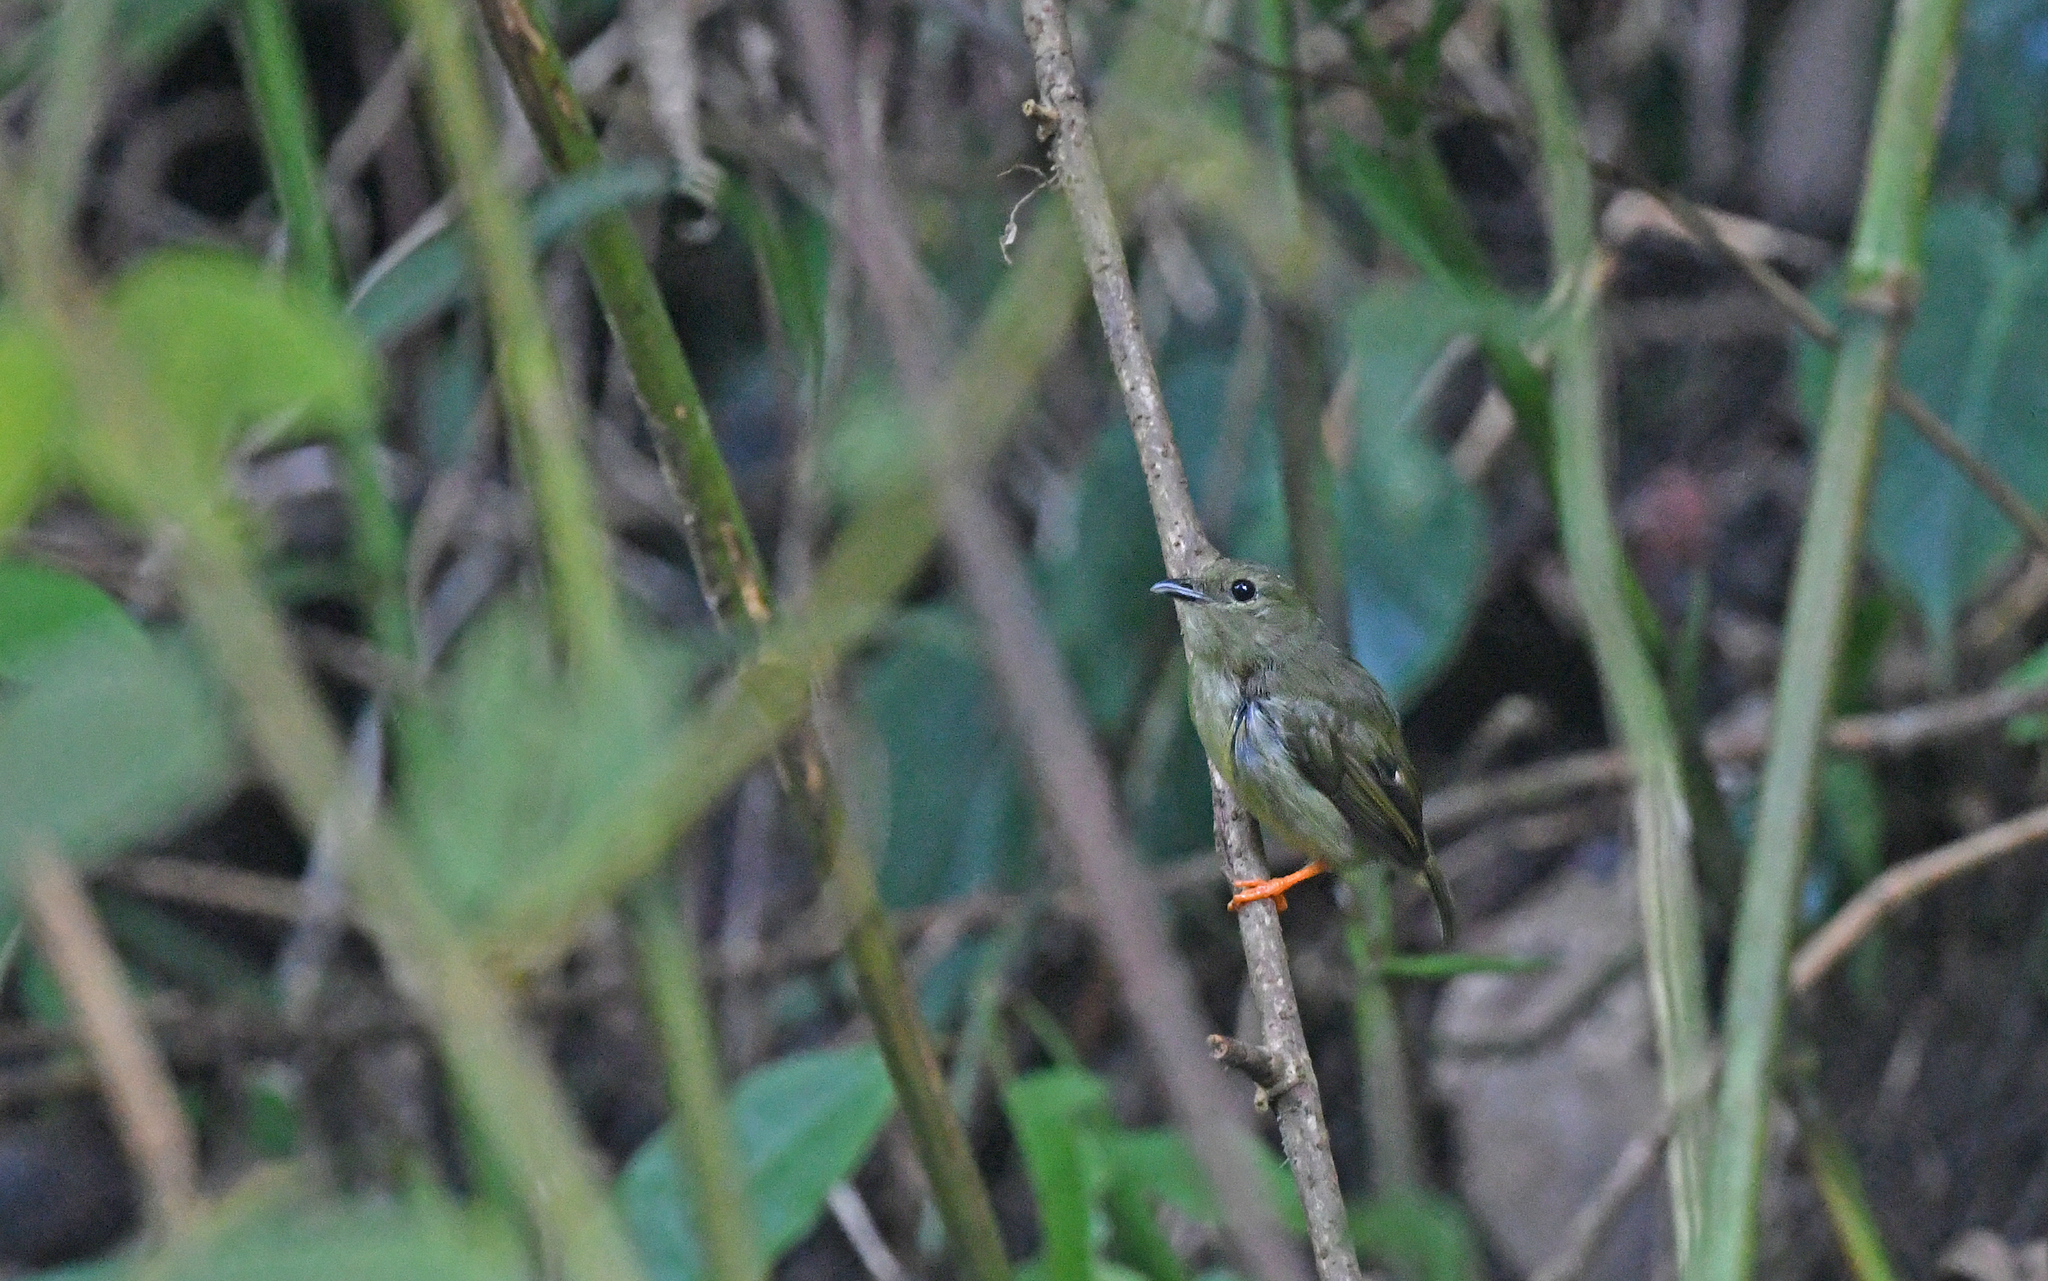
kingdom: Animalia
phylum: Chordata
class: Aves
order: Passeriformes
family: Pipridae
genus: Manacus
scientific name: Manacus manacus
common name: White-bearded manakin
